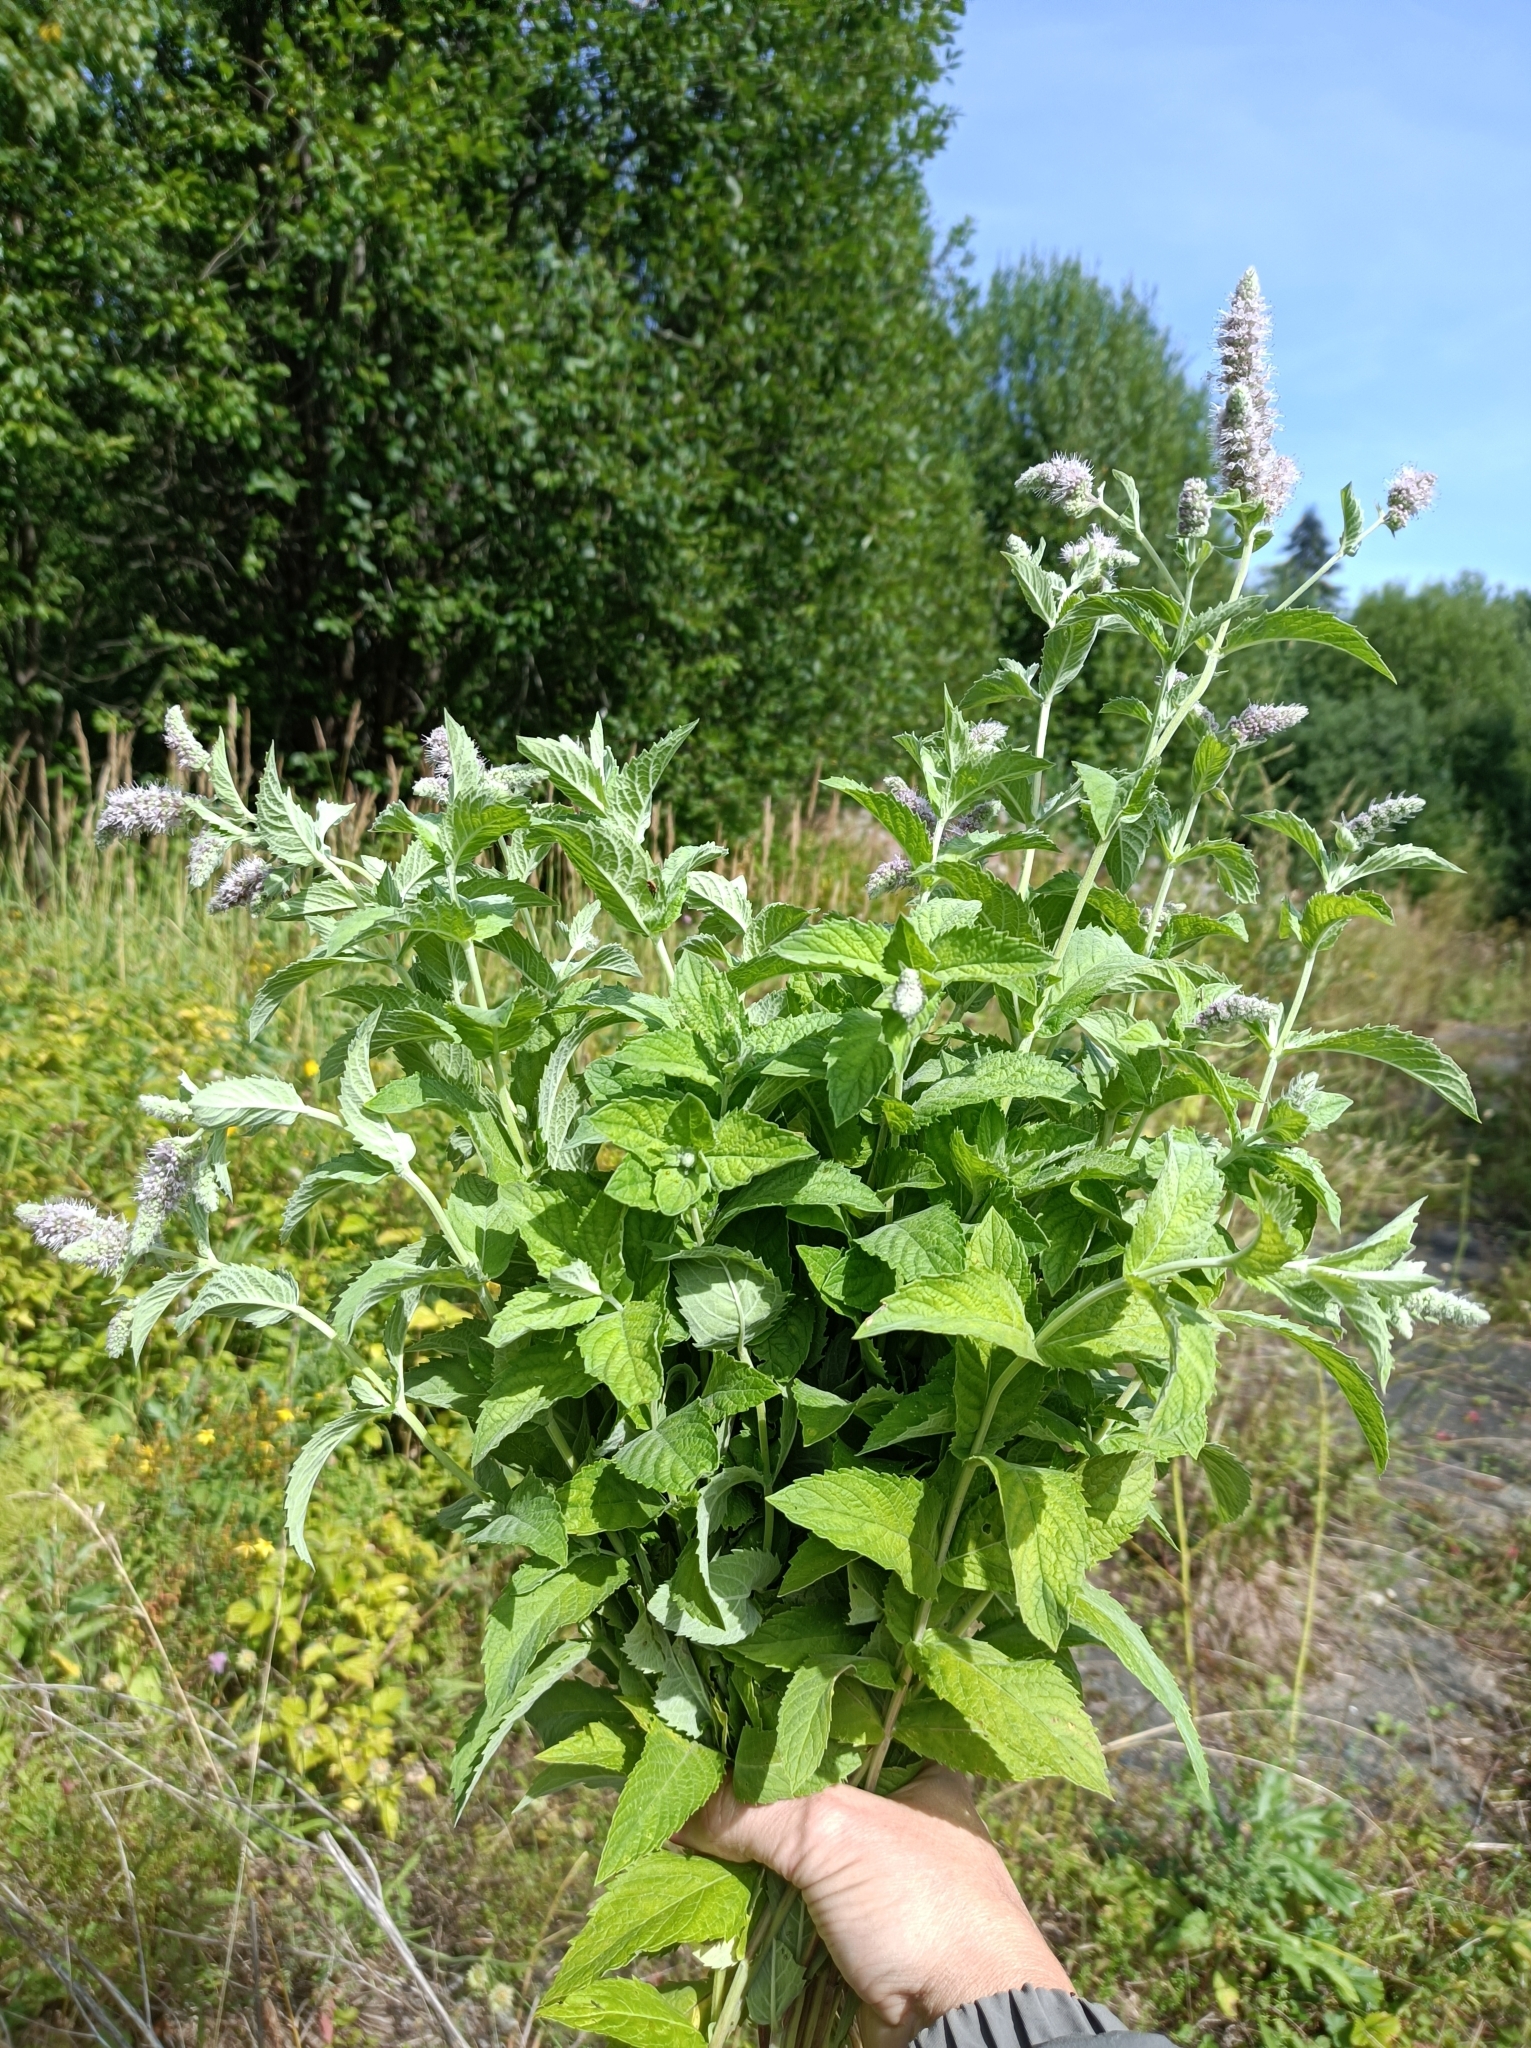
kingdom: Plantae
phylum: Tracheophyta
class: Magnoliopsida
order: Lamiales
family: Lamiaceae
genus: Mentha
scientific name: Mentha longifolia
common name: Horse mint
